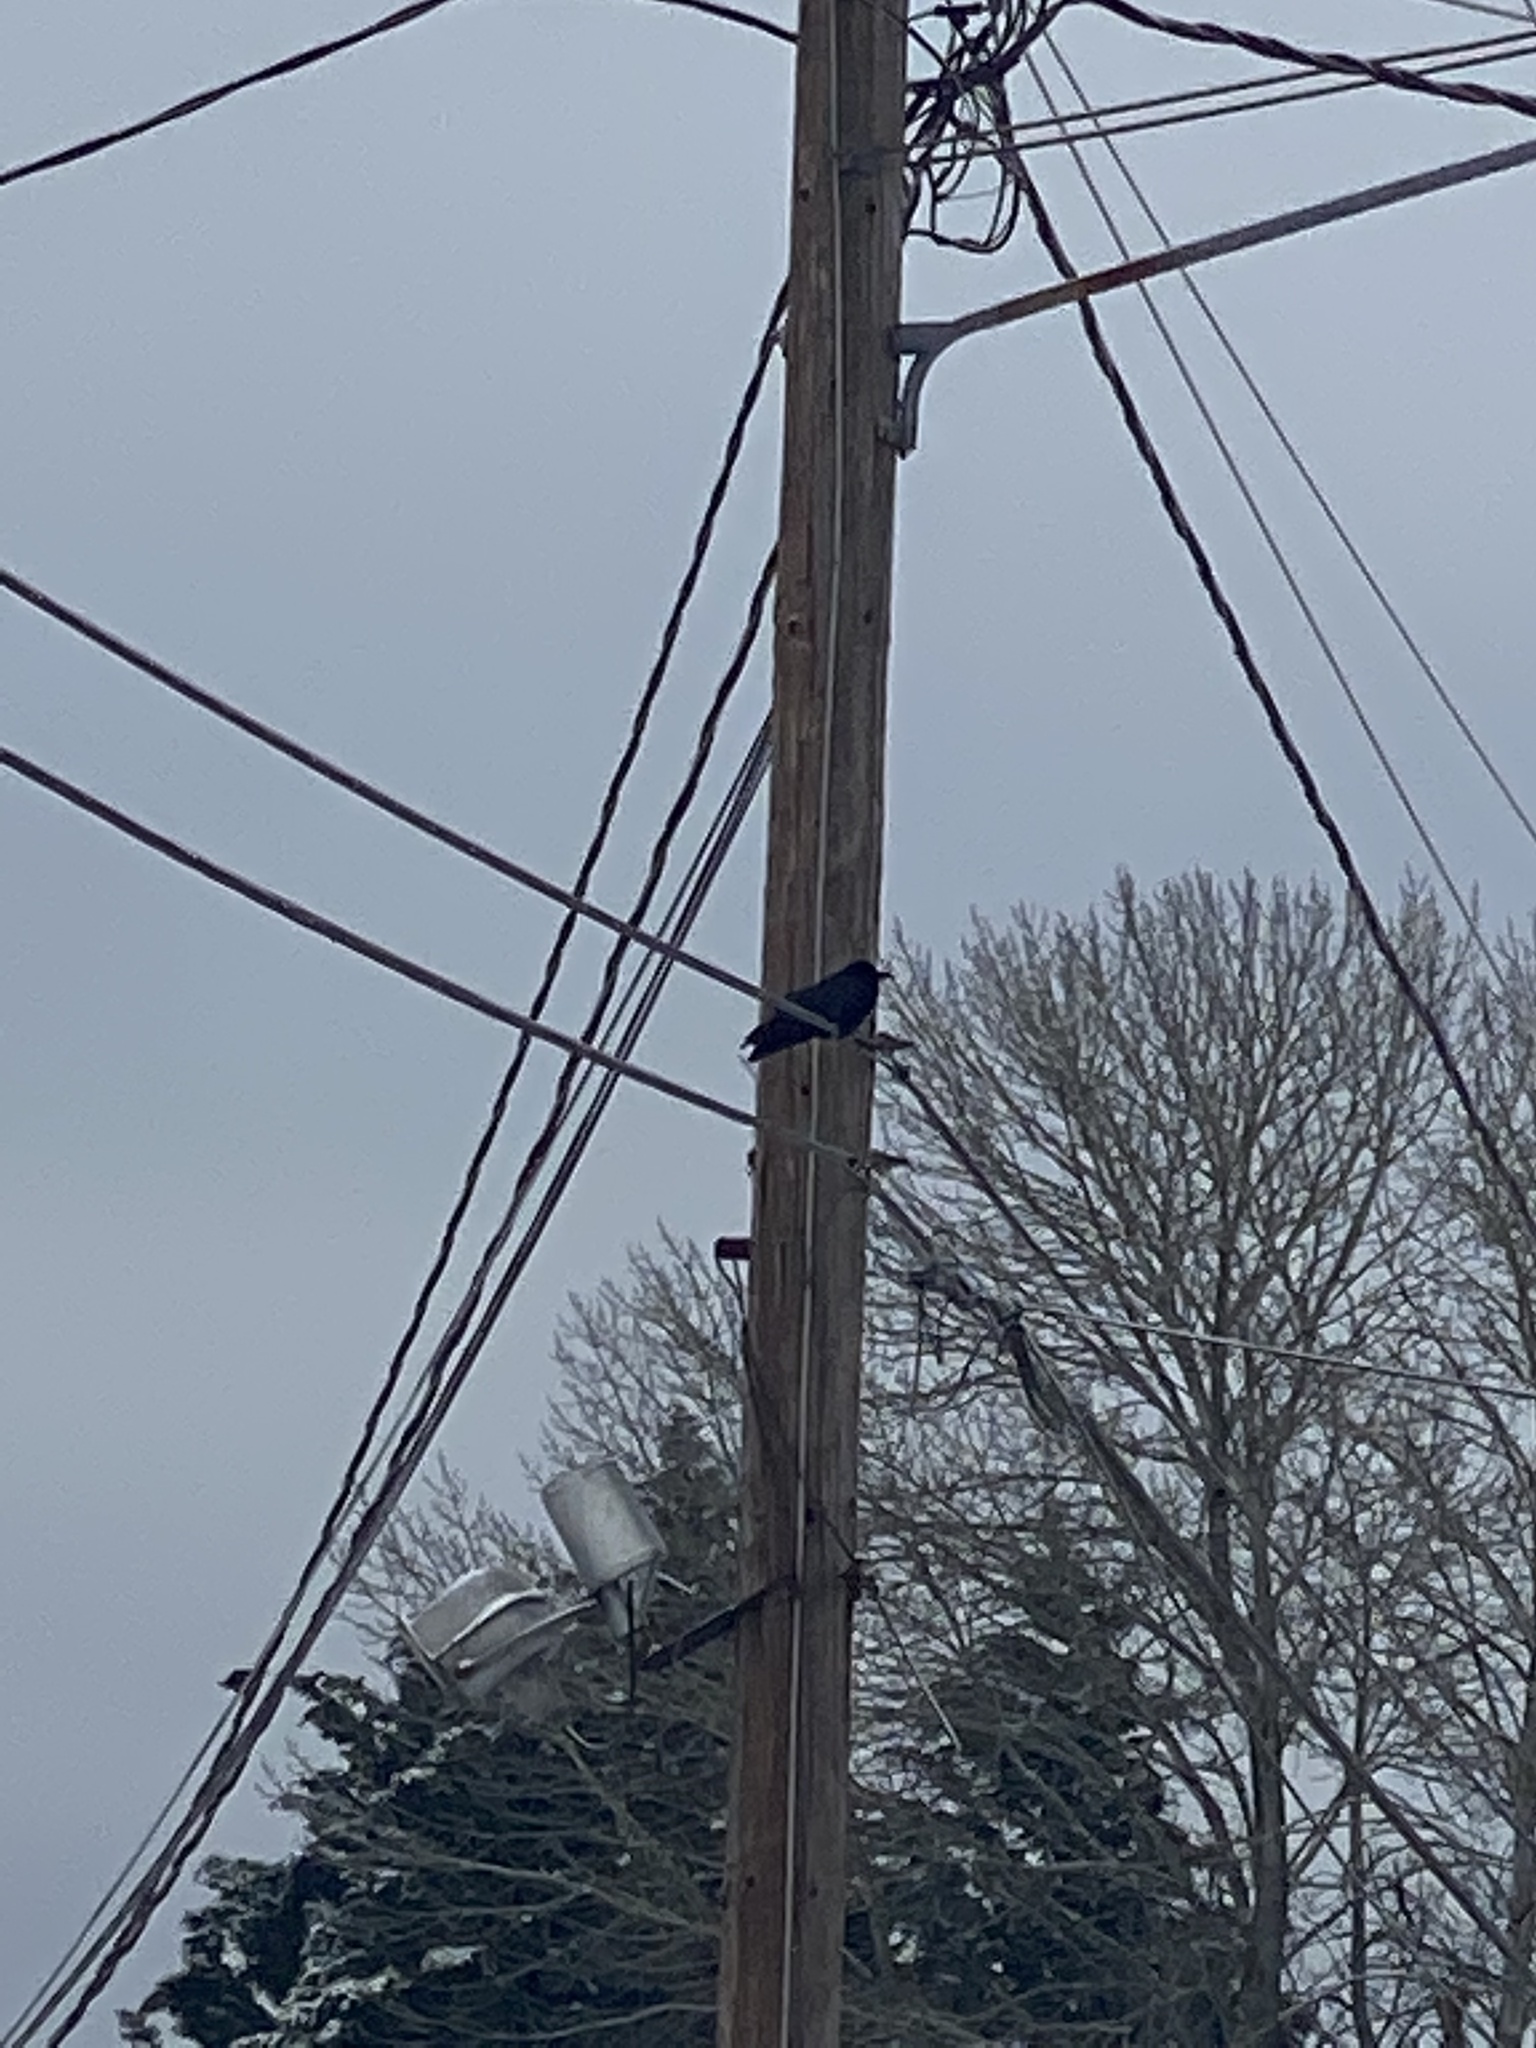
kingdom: Animalia
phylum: Chordata
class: Aves
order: Passeriformes
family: Corvidae
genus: Corvus
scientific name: Corvus brachyrhynchos
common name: American crow
